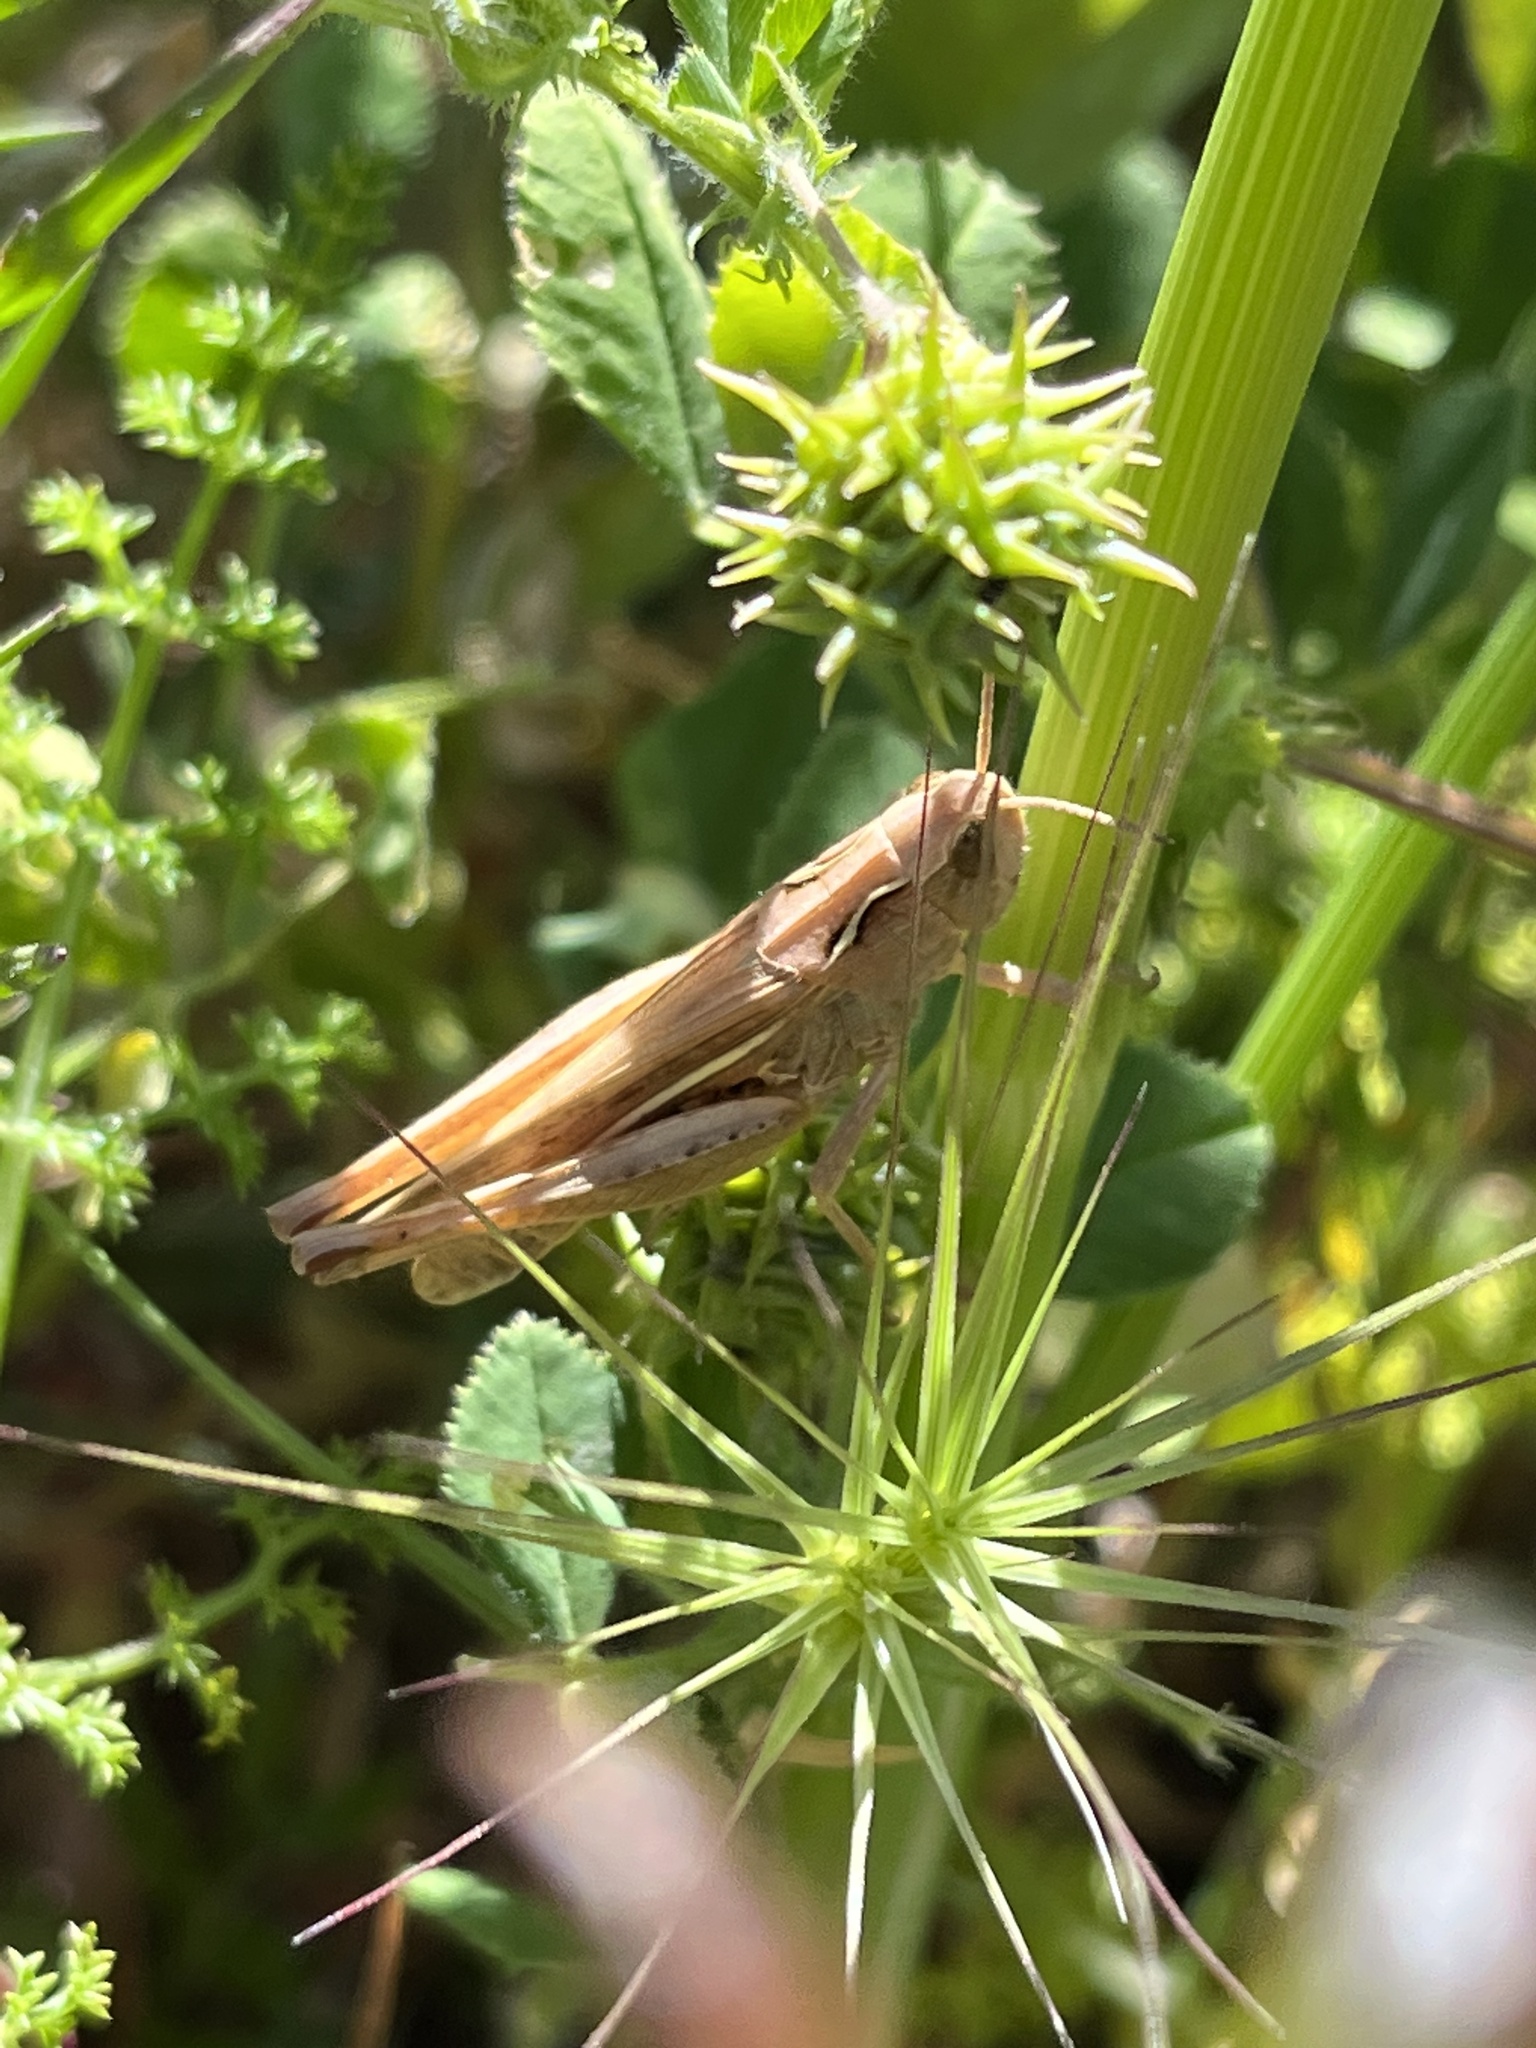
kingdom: Animalia
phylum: Arthropoda
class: Insecta
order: Orthoptera
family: Acrididae
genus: Chorthippus
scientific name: Chorthippus apicalis
